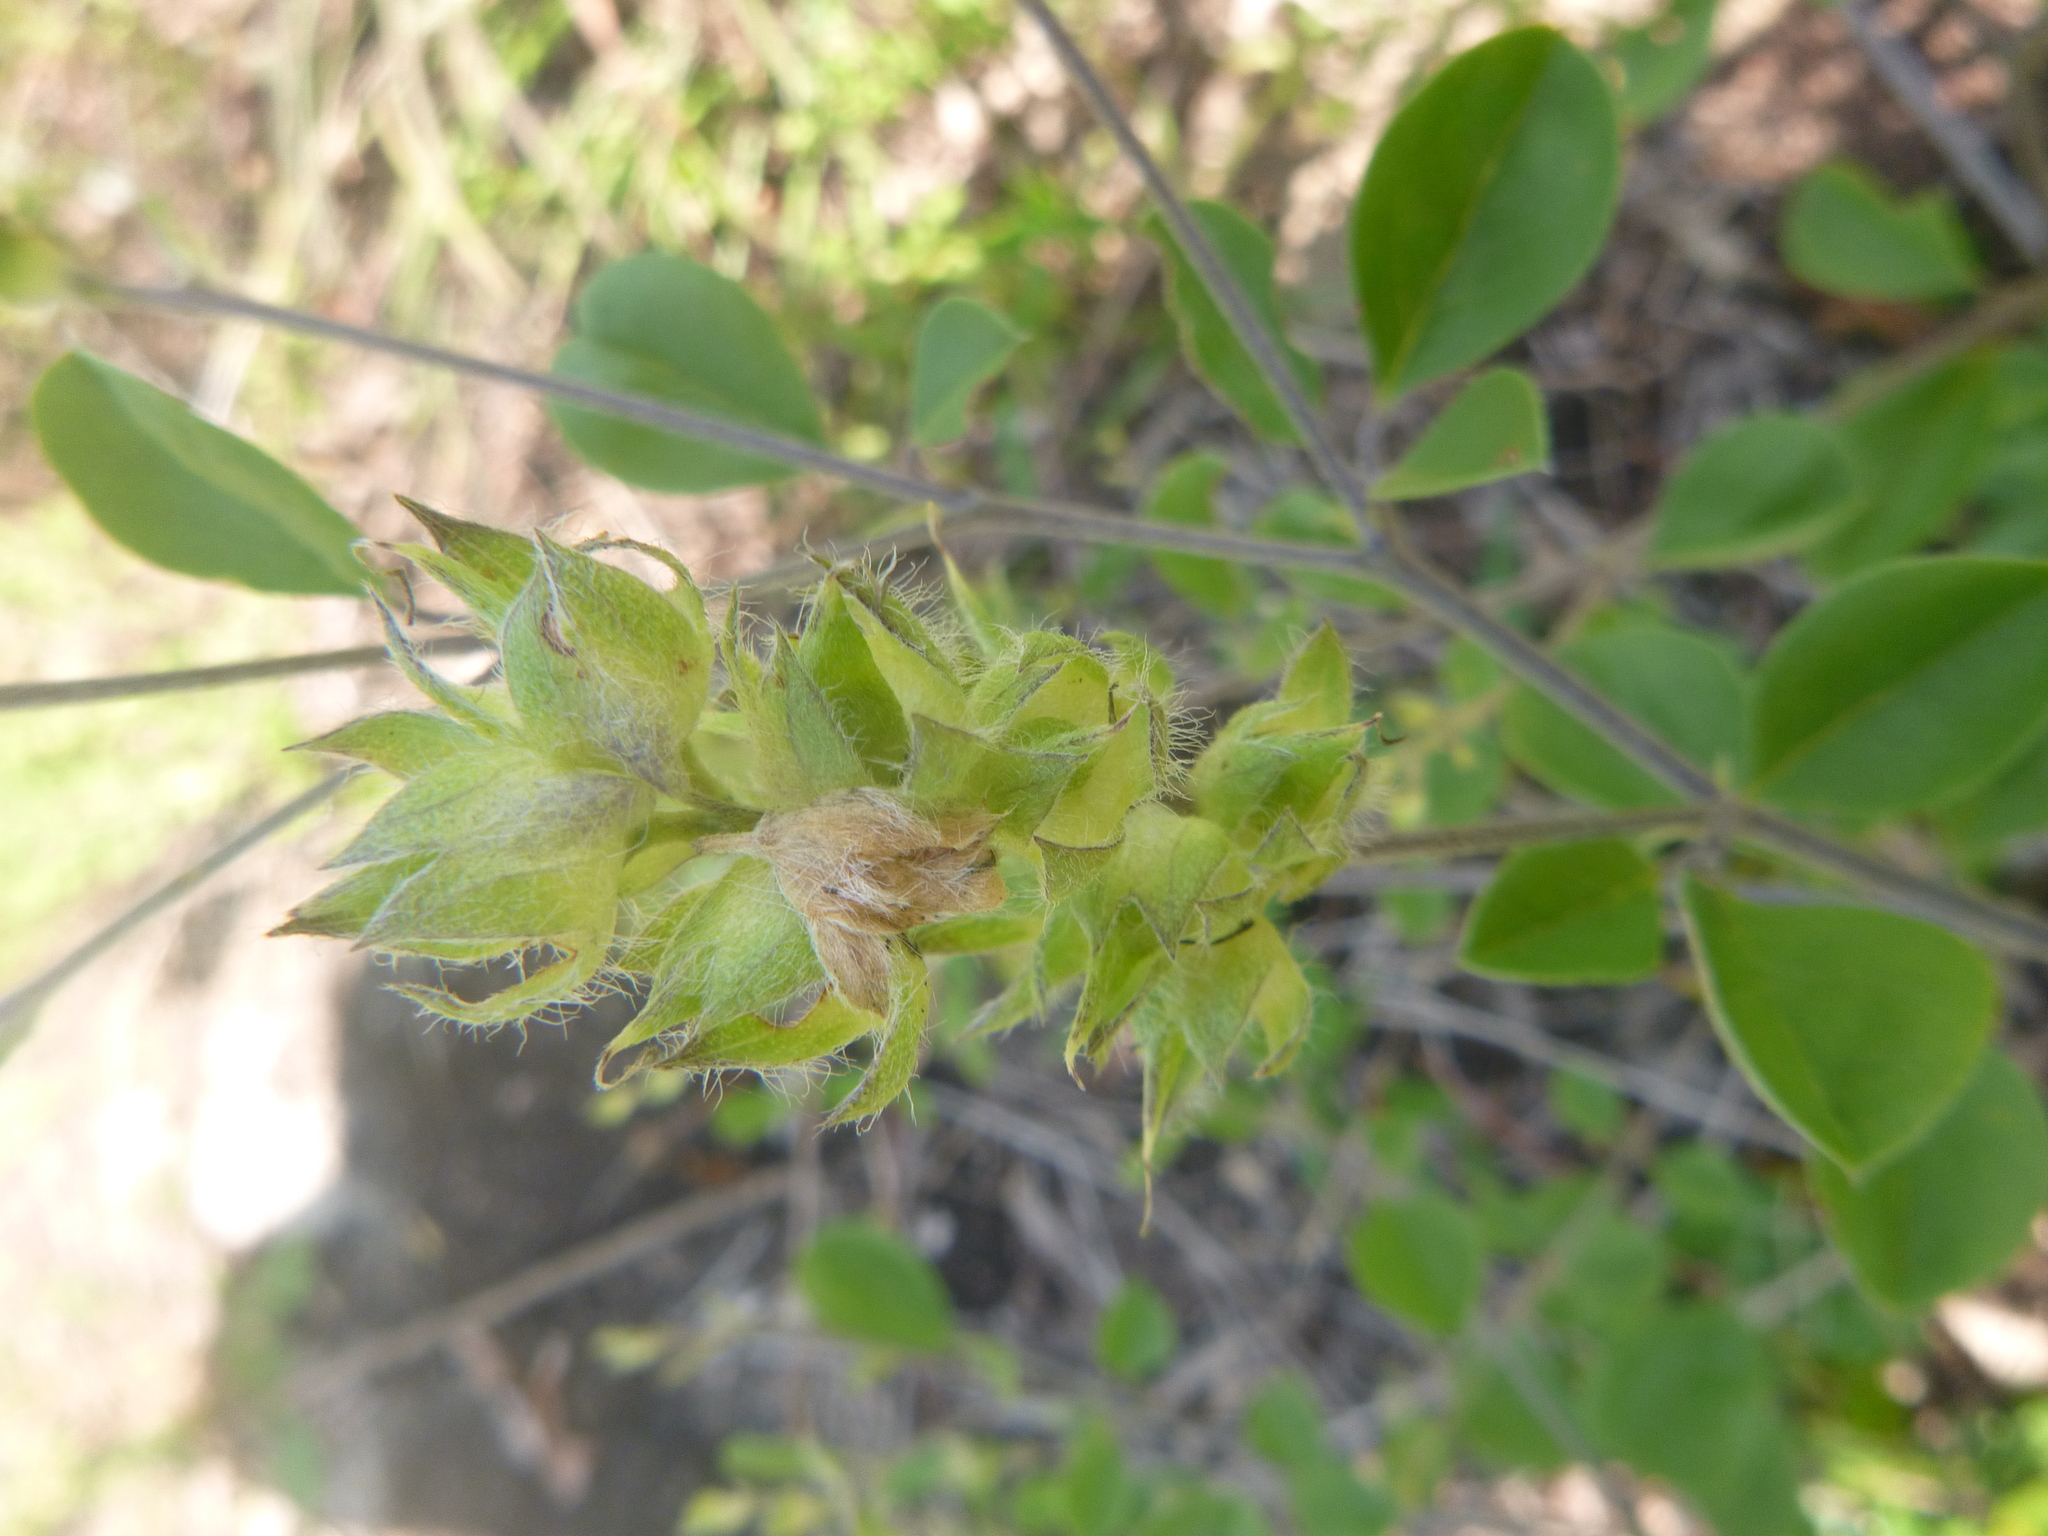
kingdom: Plantae
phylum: Tracheophyta
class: Magnoliopsida
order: Fabales
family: Fabaceae
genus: Pediomelum
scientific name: Pediomelum canescens
